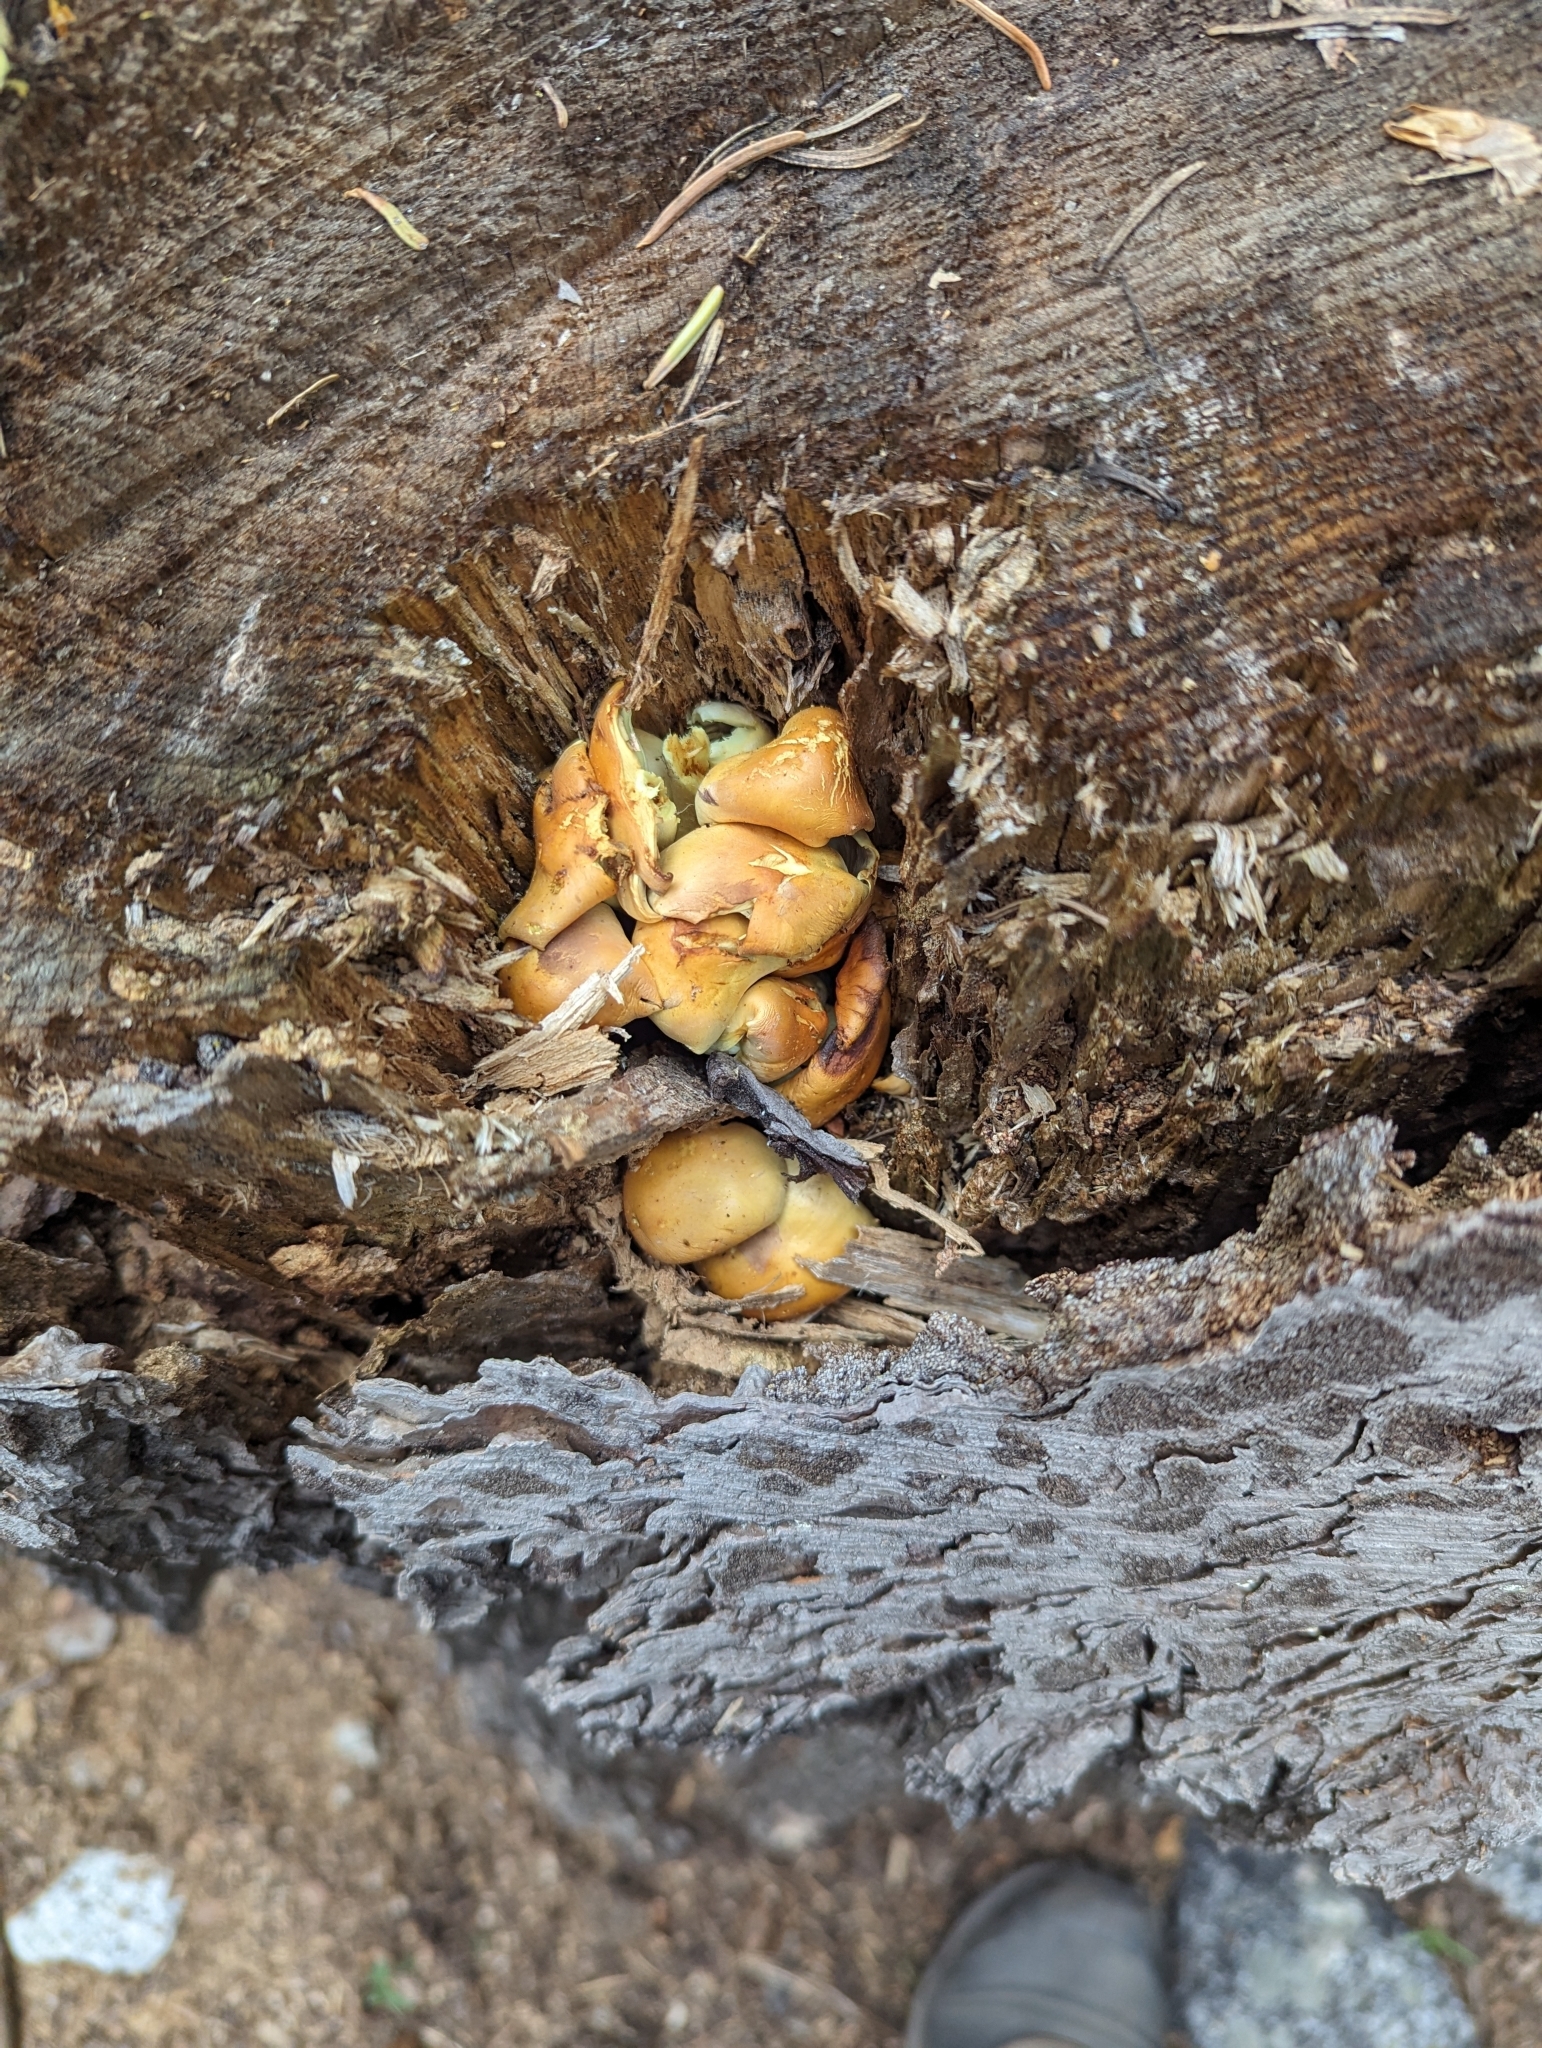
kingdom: Fungi
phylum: Basidiomycota
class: Agaricomycetes
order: Agaricales
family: Strophariaceae
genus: Hypholoma
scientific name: Hypholoma fasciculare
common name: Sulphur tuft
